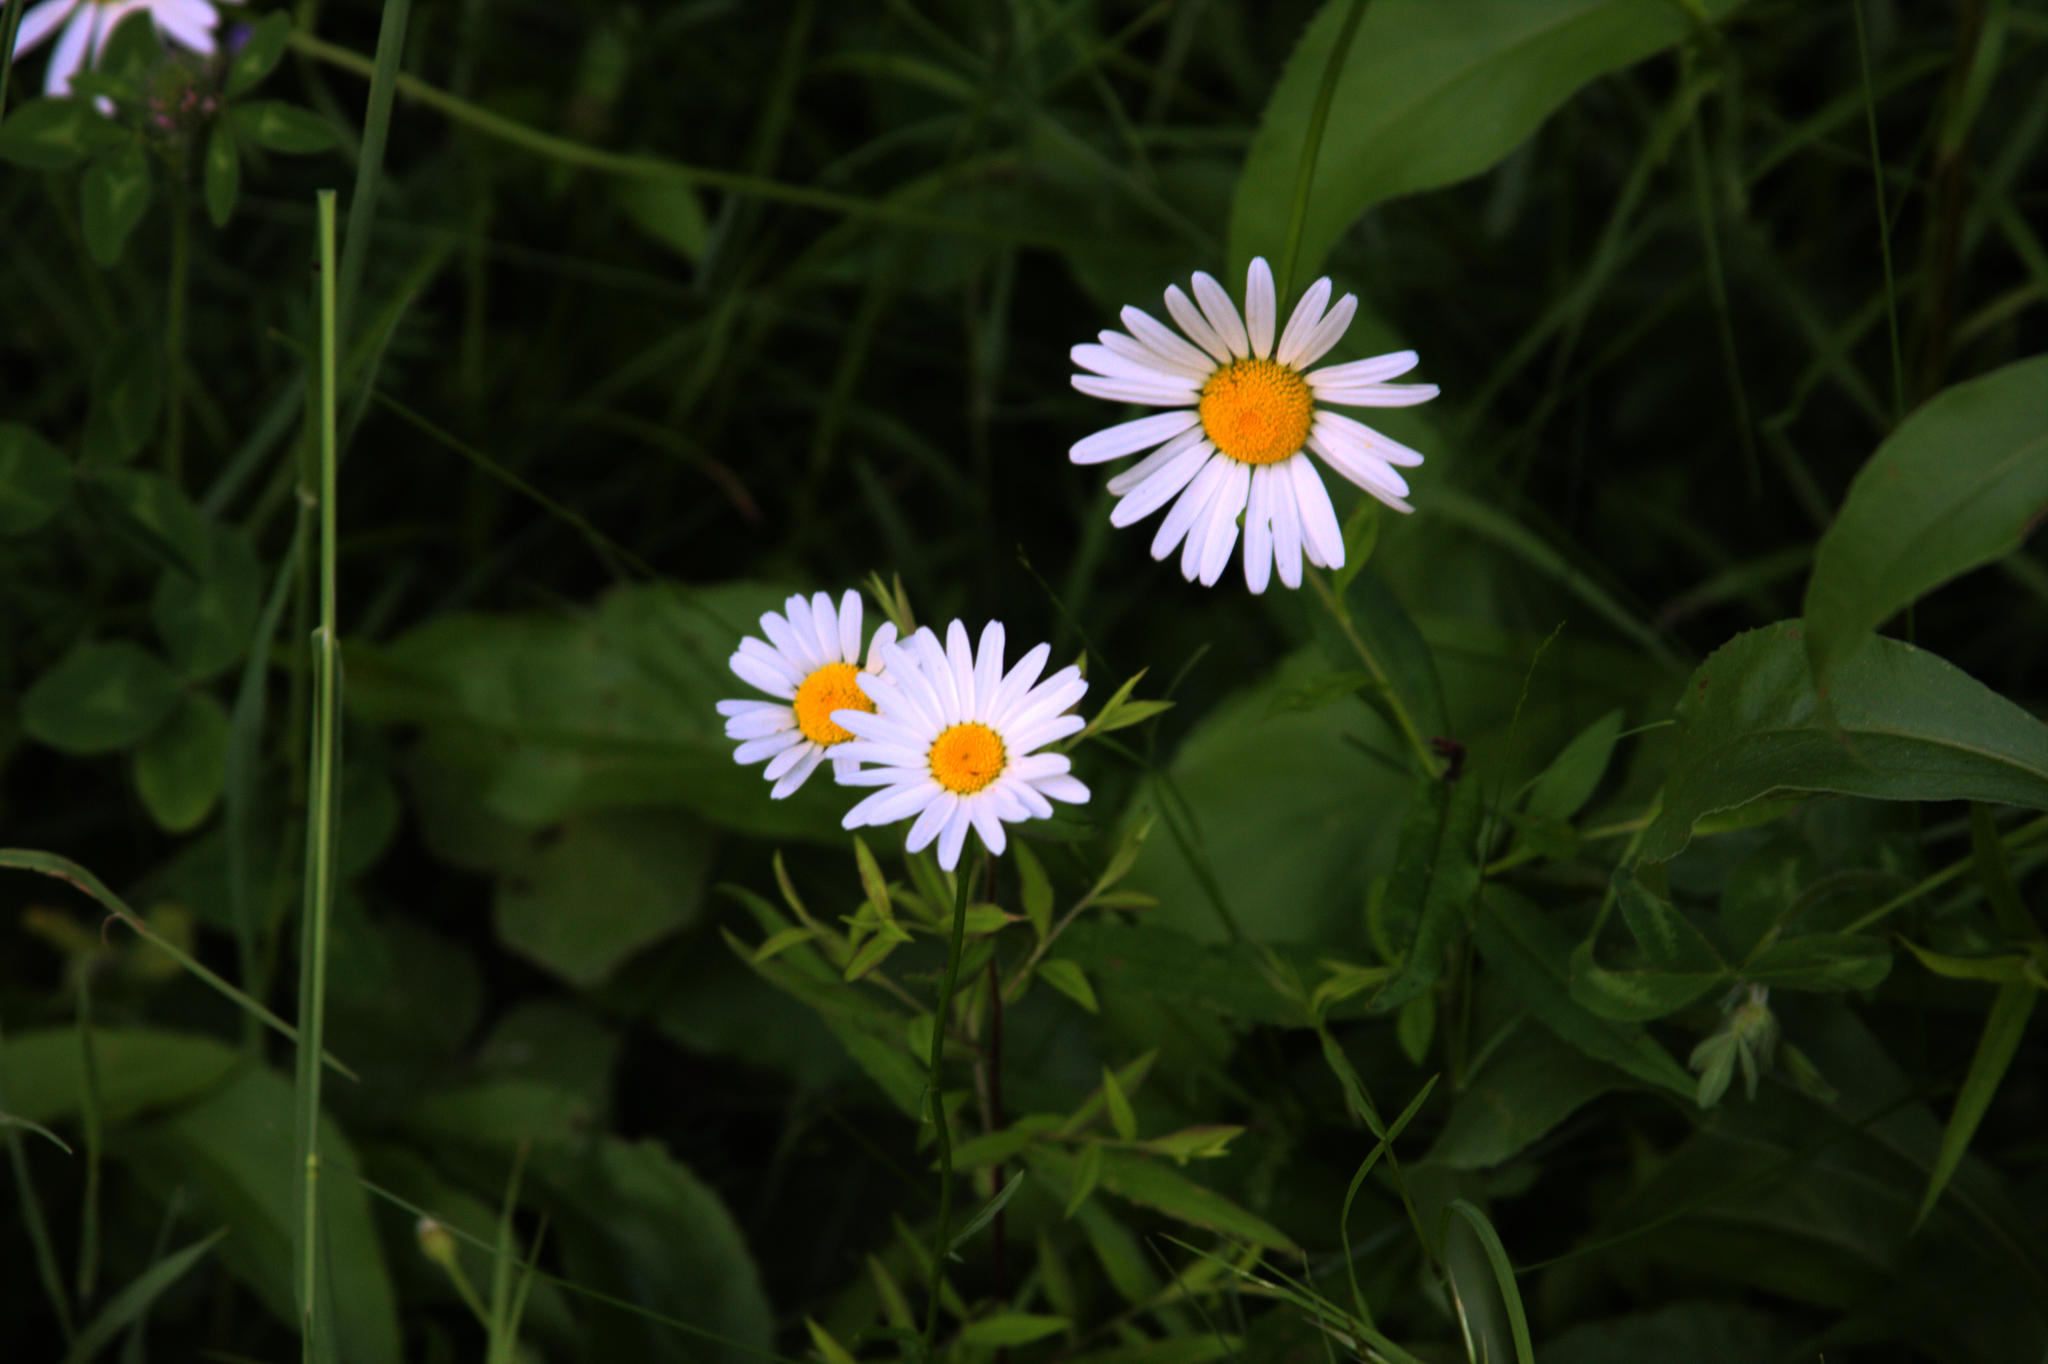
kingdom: Plantae
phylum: Tracheophyta
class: Magnoliopsida
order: Asterales
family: Asteraceae
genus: Leucanthemum
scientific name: Leucanthemum vulgare
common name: Oxeye daisy
